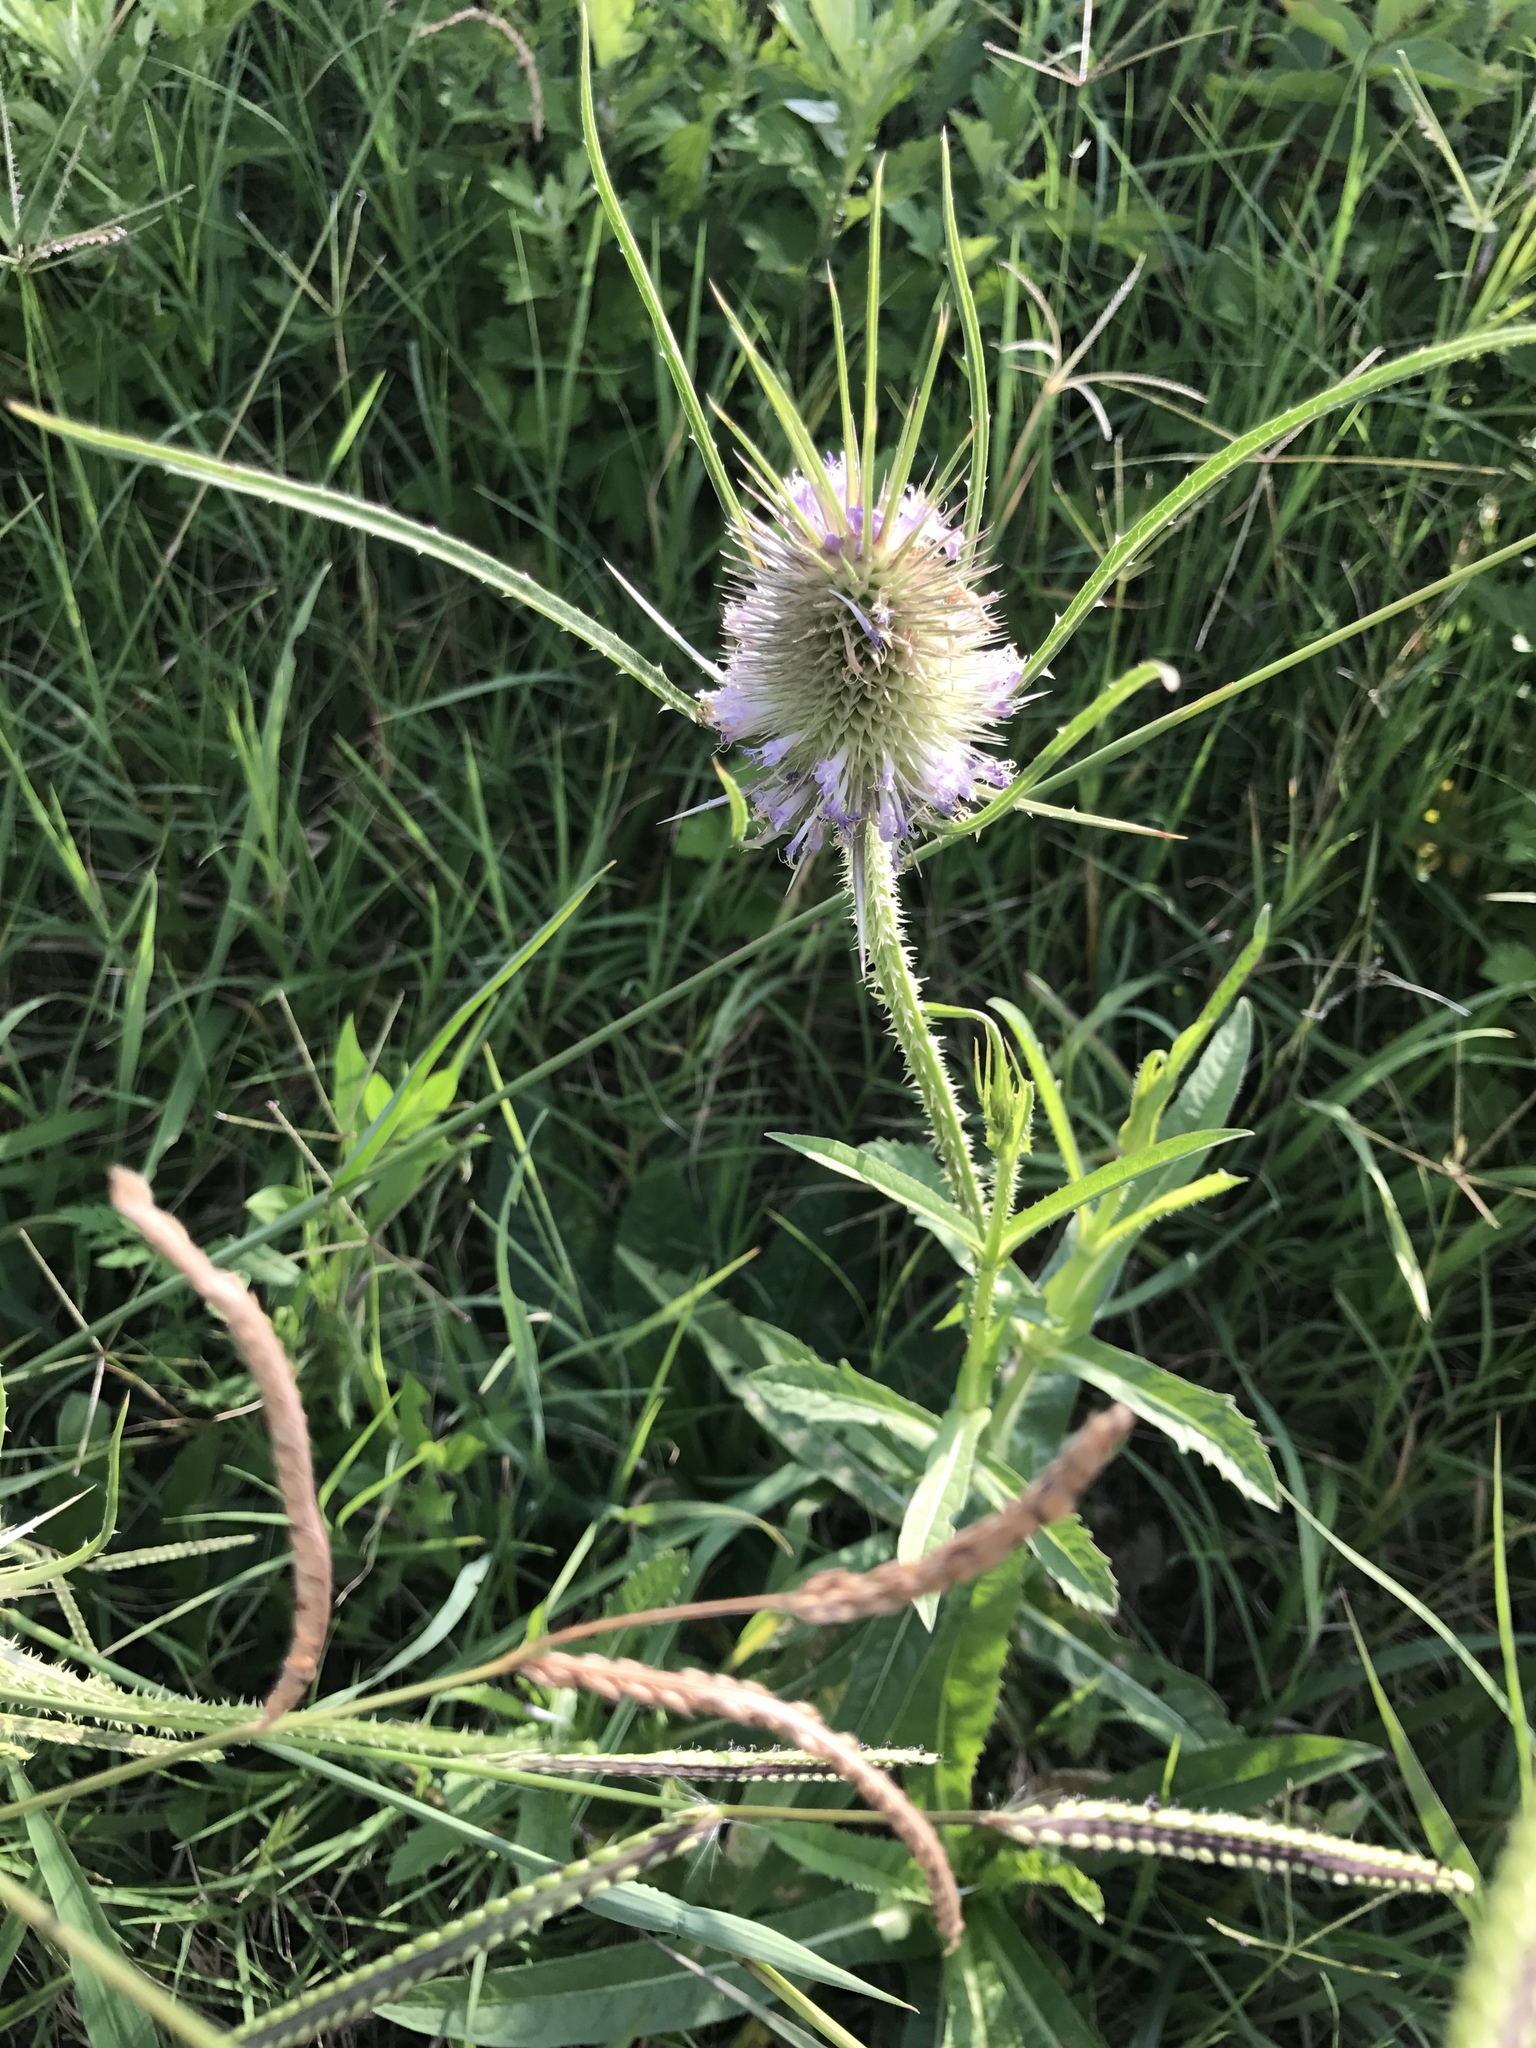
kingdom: Plantae
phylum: Tracheophyta
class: Magnoliopsida
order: Dipsacales
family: Caprifoliaceae
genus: Dipsacus
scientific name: Dipsacus fullonum
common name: Teasel
